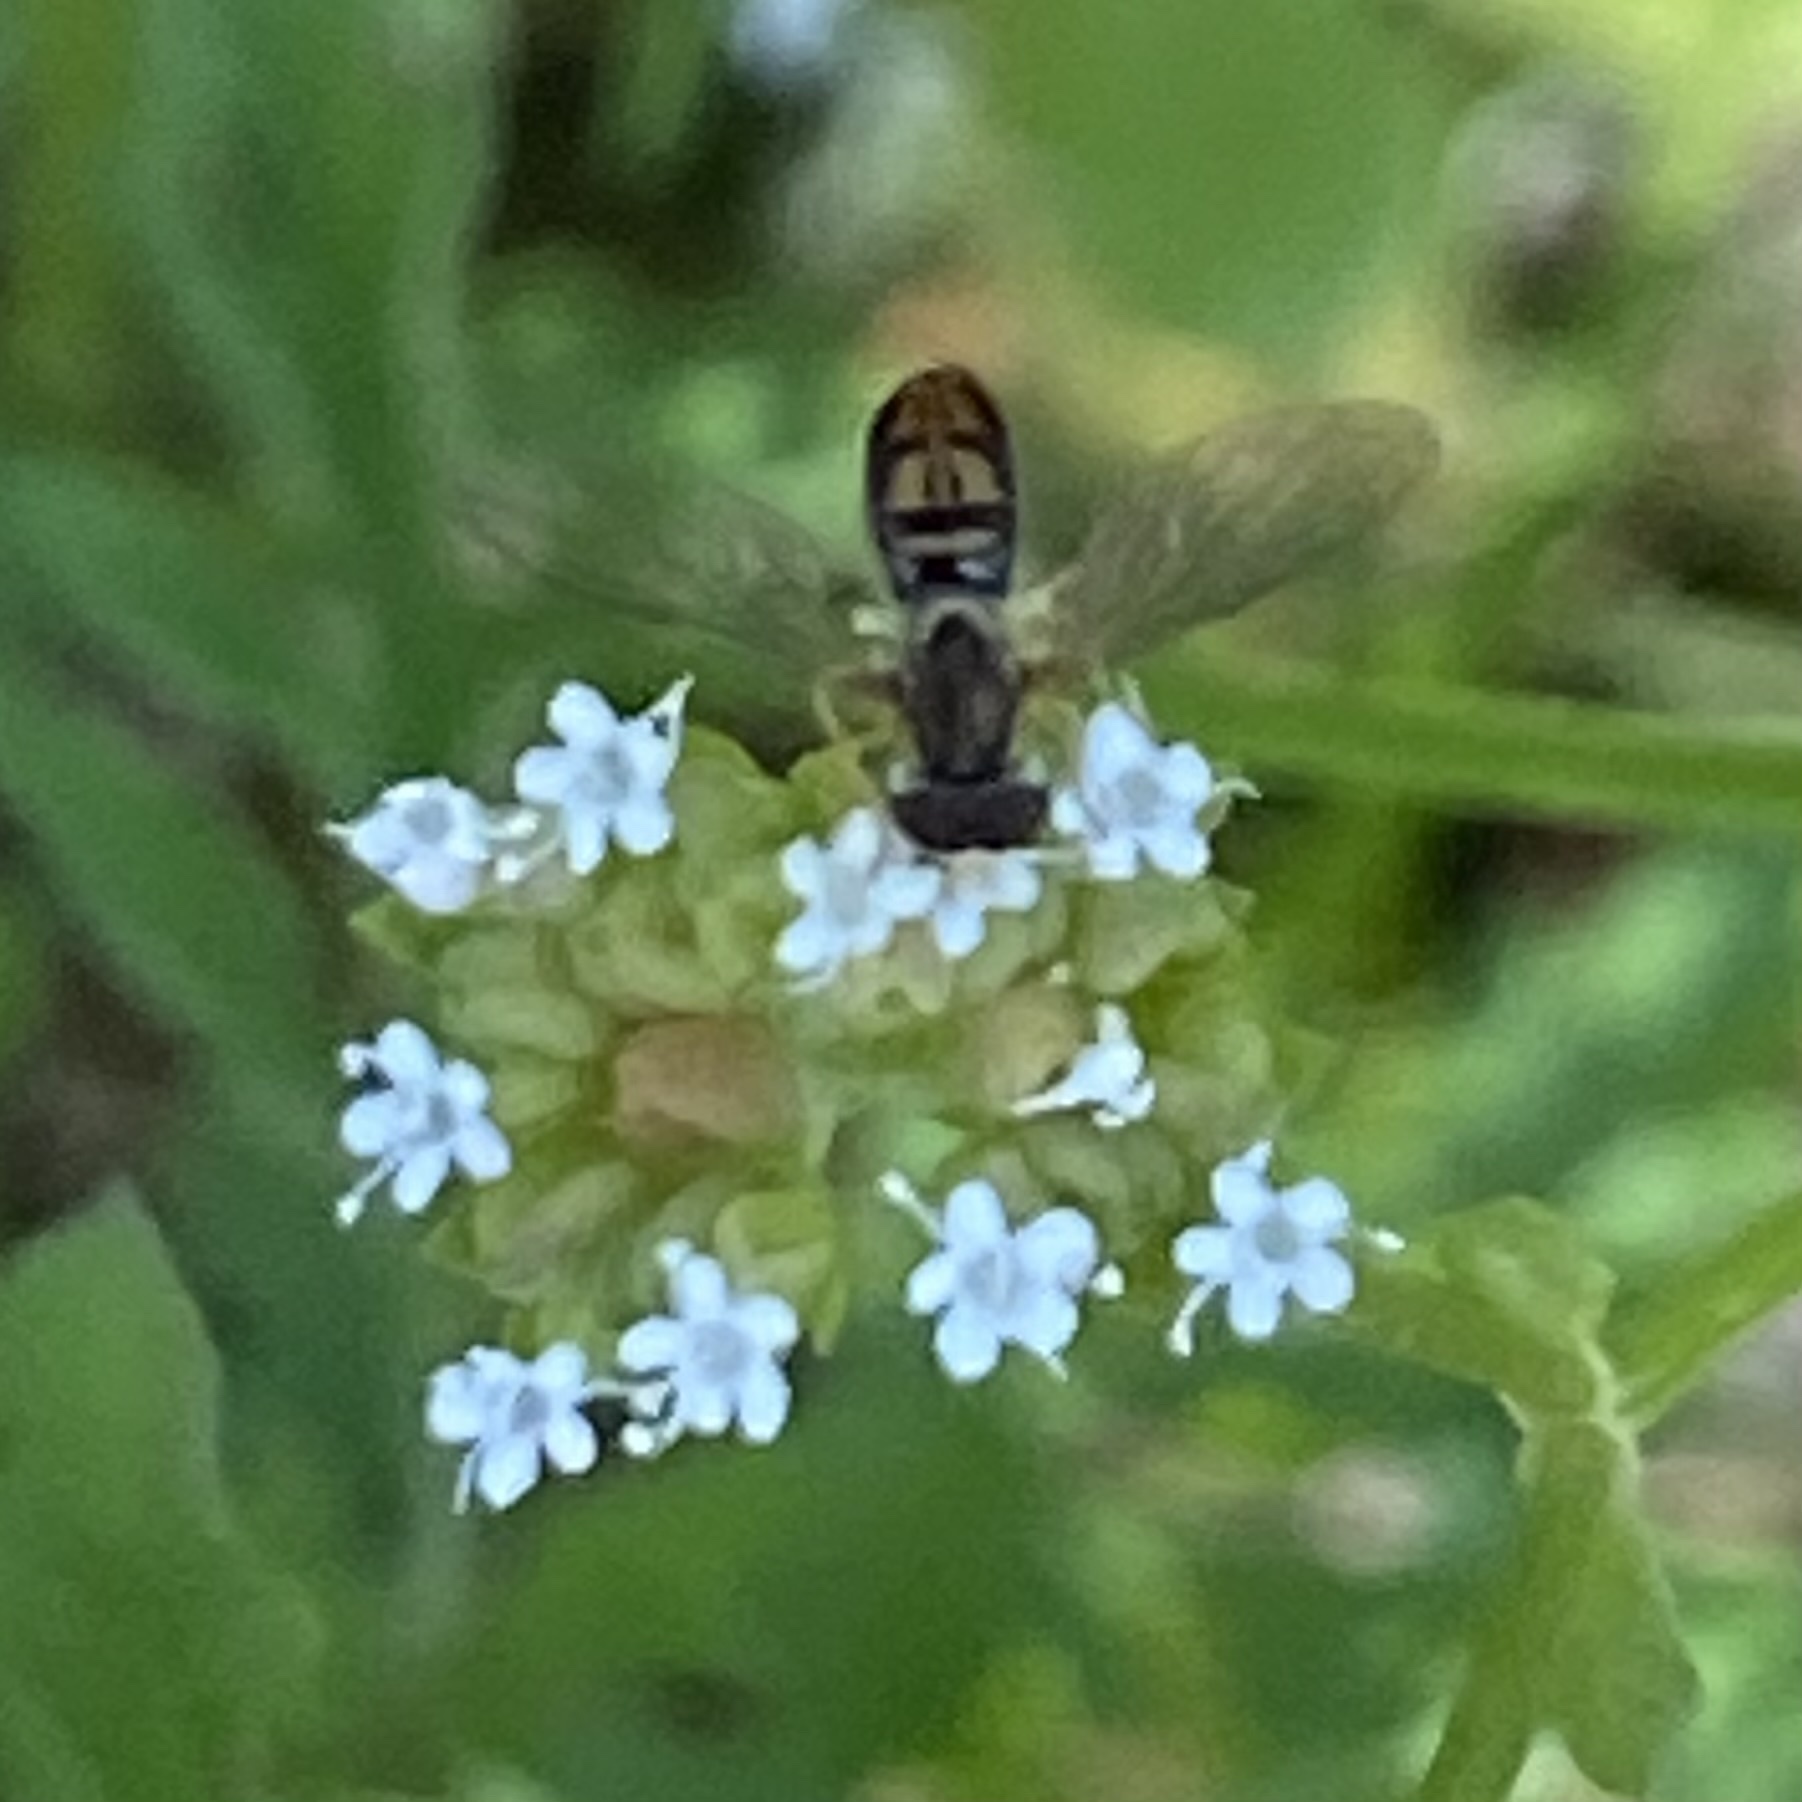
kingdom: Animalia
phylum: Arthropoda
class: Insecta
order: Diptera
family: Syrphidae
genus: Toxomerus
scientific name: Toxomerus marginatus
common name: Syrphid fly
